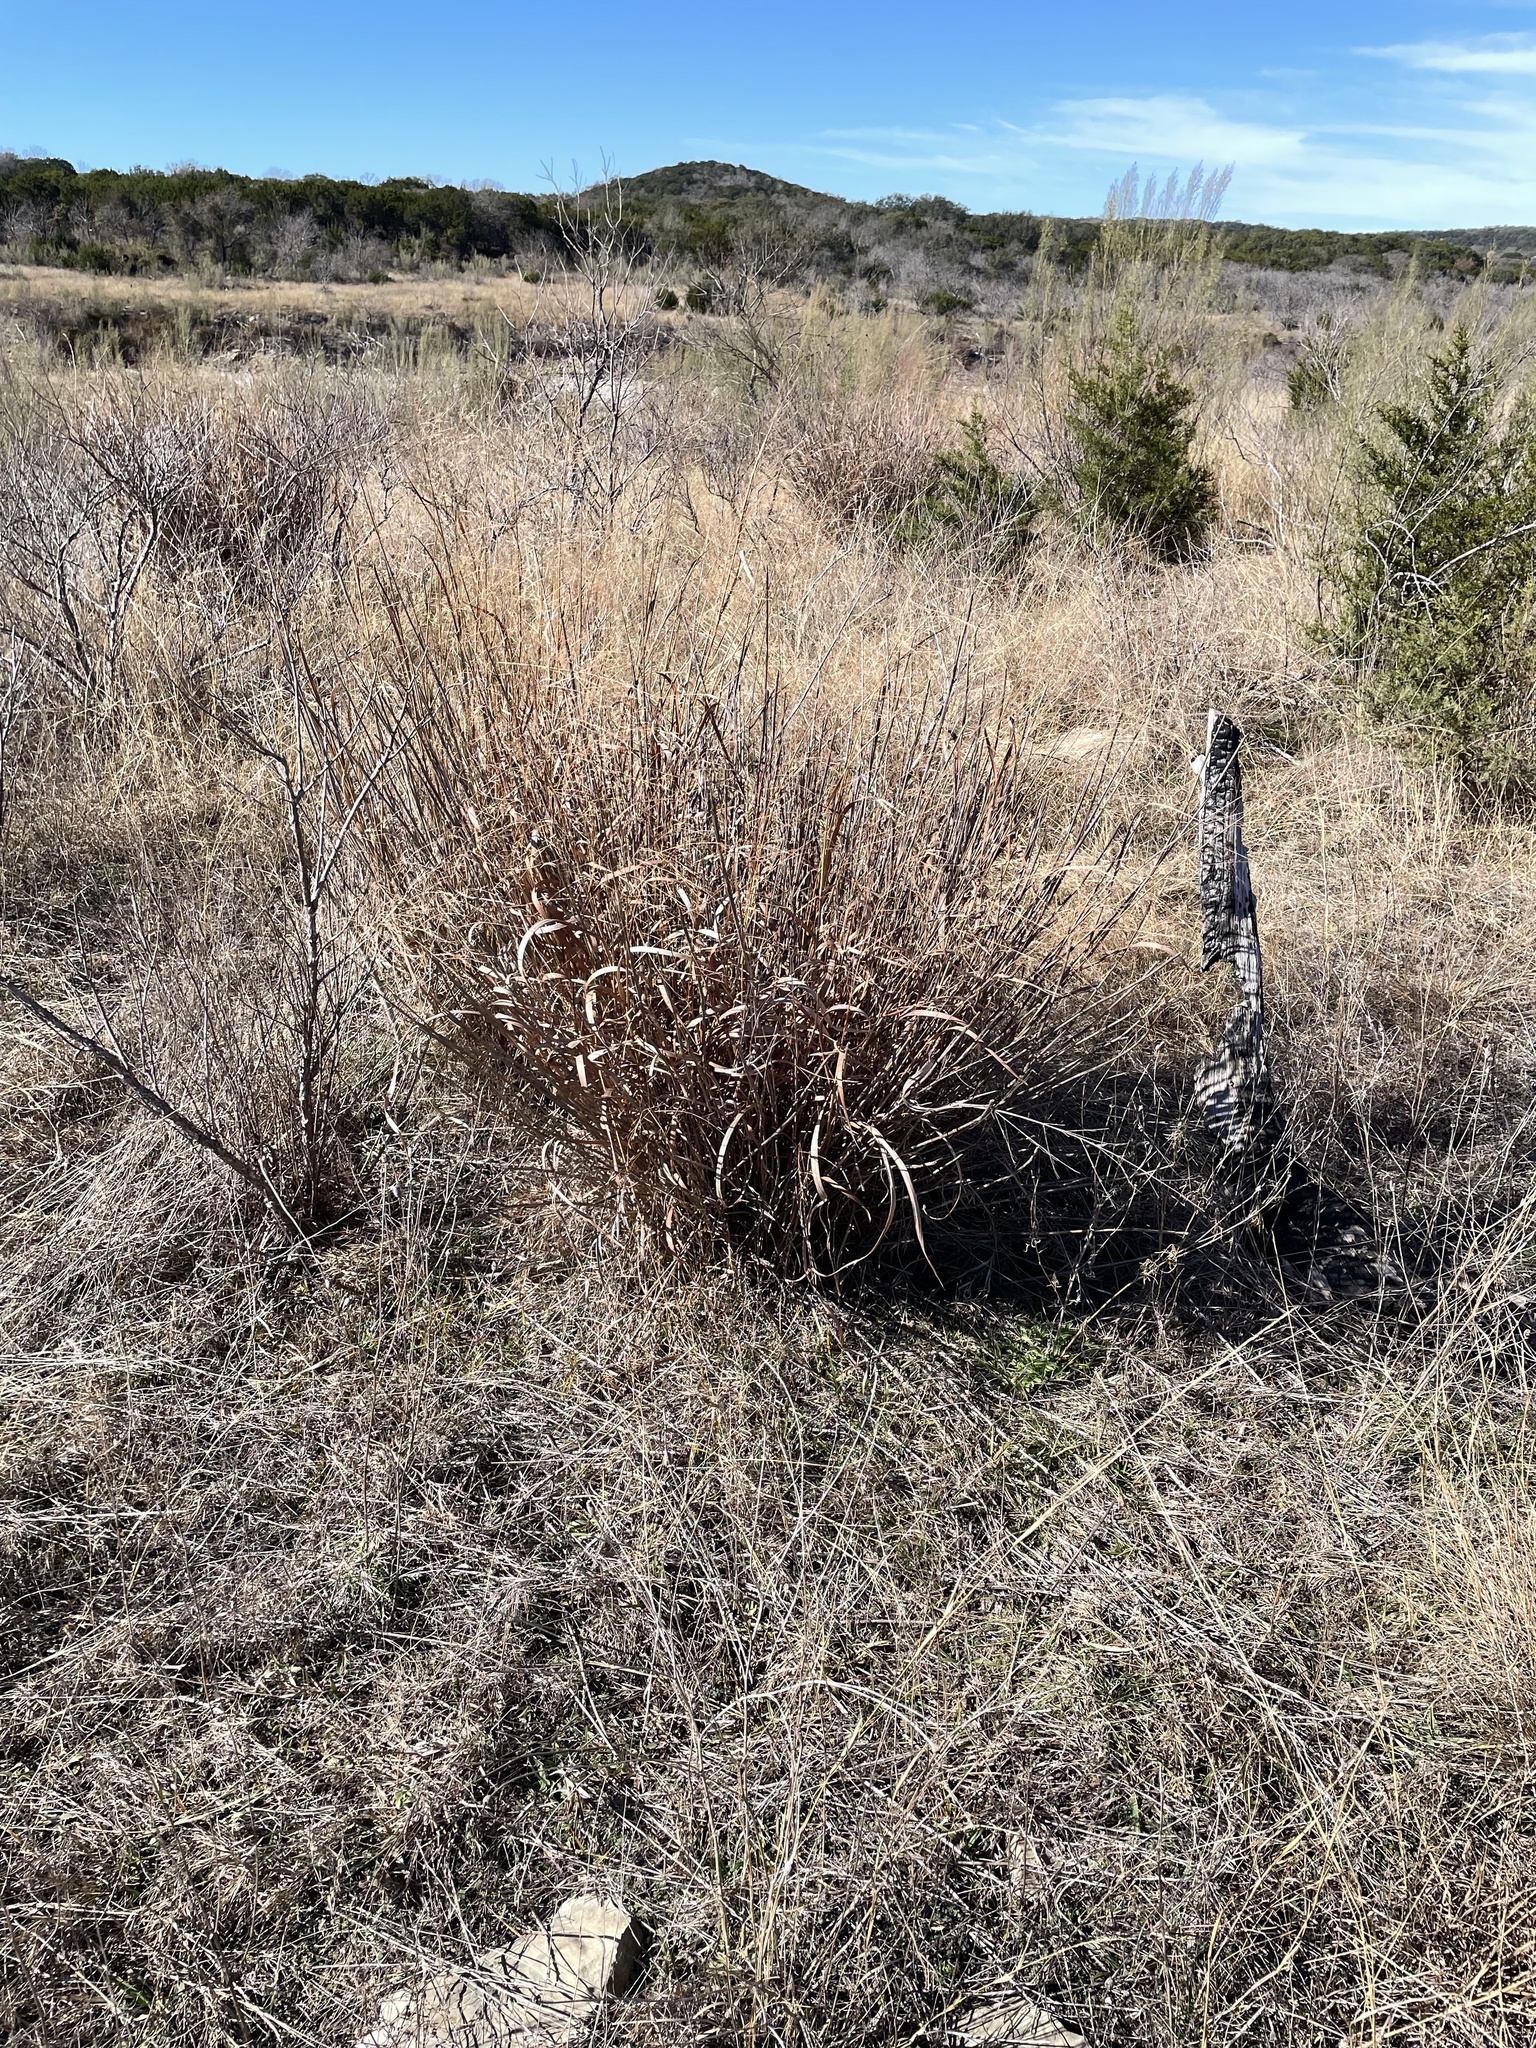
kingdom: Plantae
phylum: Tracheophyta
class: Liliopsida
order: Poales
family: Poaceae
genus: Panicum
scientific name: Panicum virgatum
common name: Switchgrass
